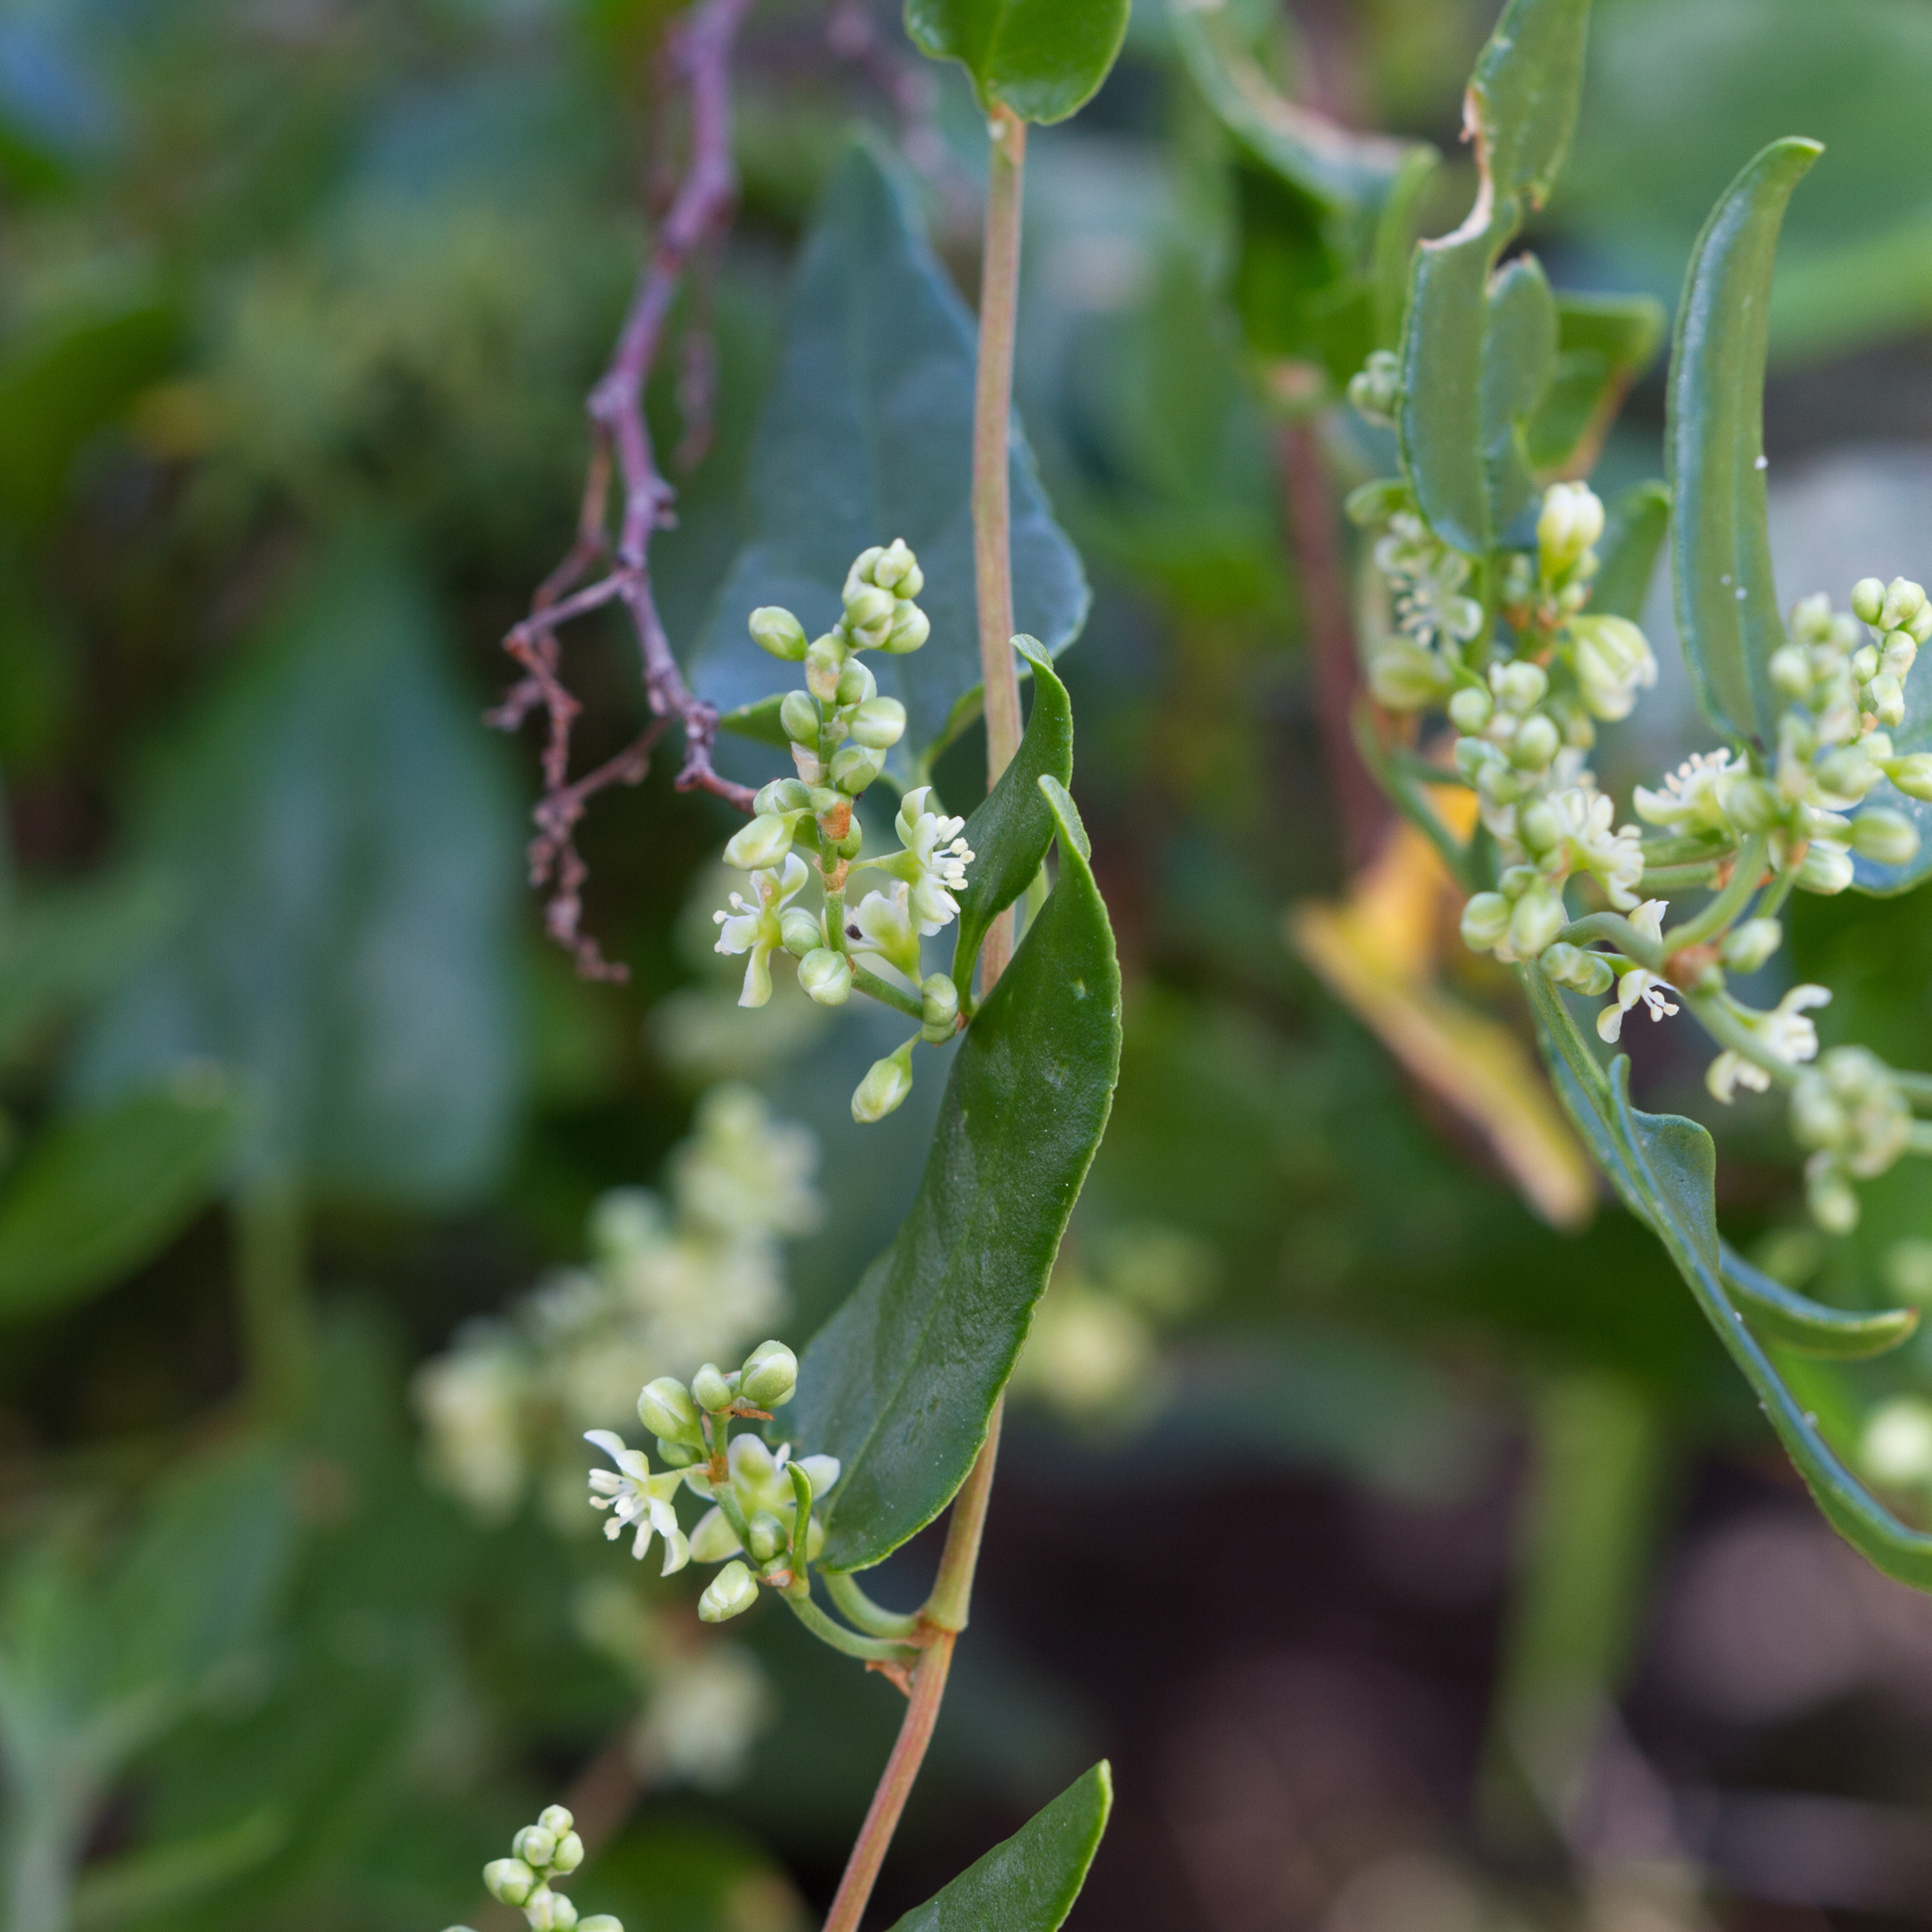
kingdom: Plantae
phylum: Tracheophyta
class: Magnoliopsida
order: Caryophyllales
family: Polygonaceae
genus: Muehlenbeckia
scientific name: Muehlenbeckia gunnii
